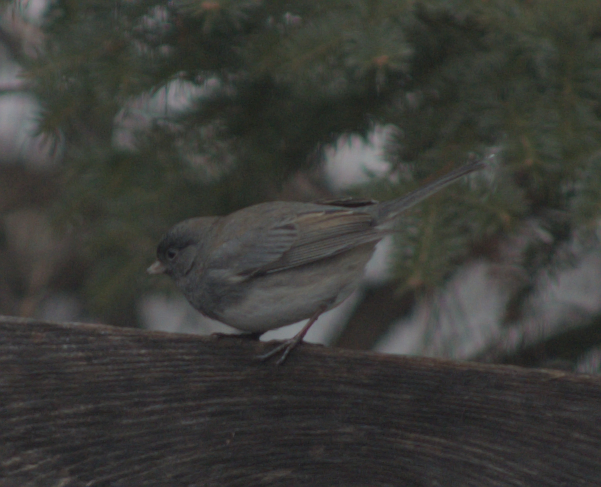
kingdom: Animalia
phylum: Chordata
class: Aves
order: Passeriformes
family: Passerellidae
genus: Junco
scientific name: Junco hyemalis
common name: Dark-eyed junco
